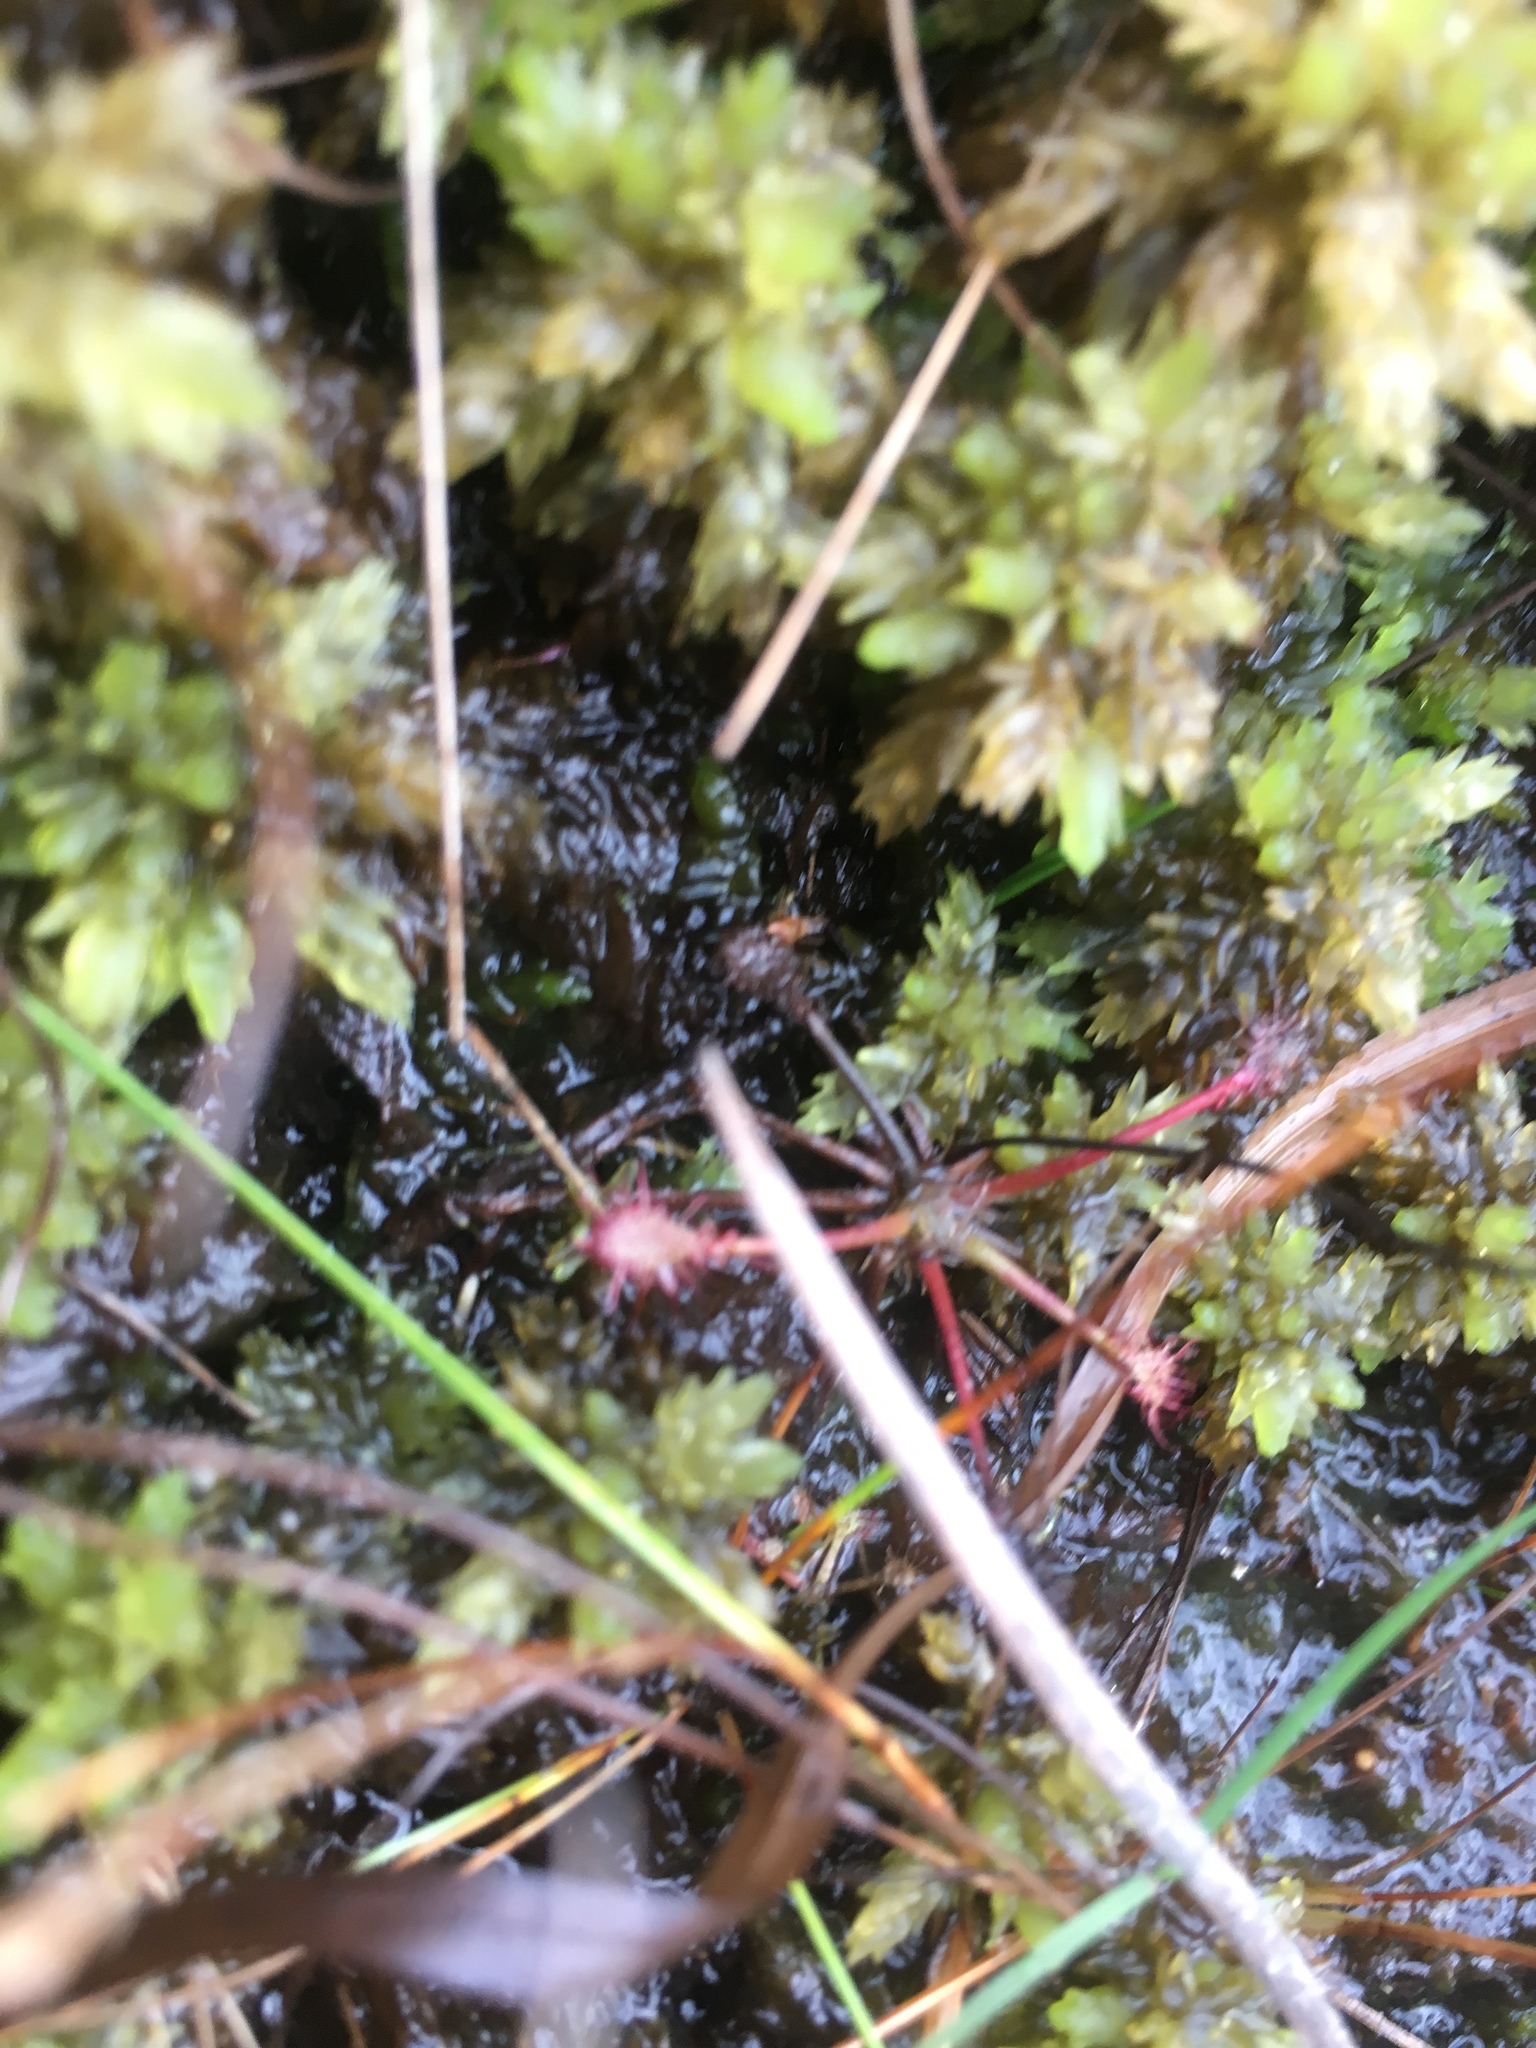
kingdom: Plantae
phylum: Tracheophyta
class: Magnoliopsida
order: Caryophyllales
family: Droseraceae
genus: Drosera
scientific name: Drosera intermedia
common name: Oblong-leaved sundew
